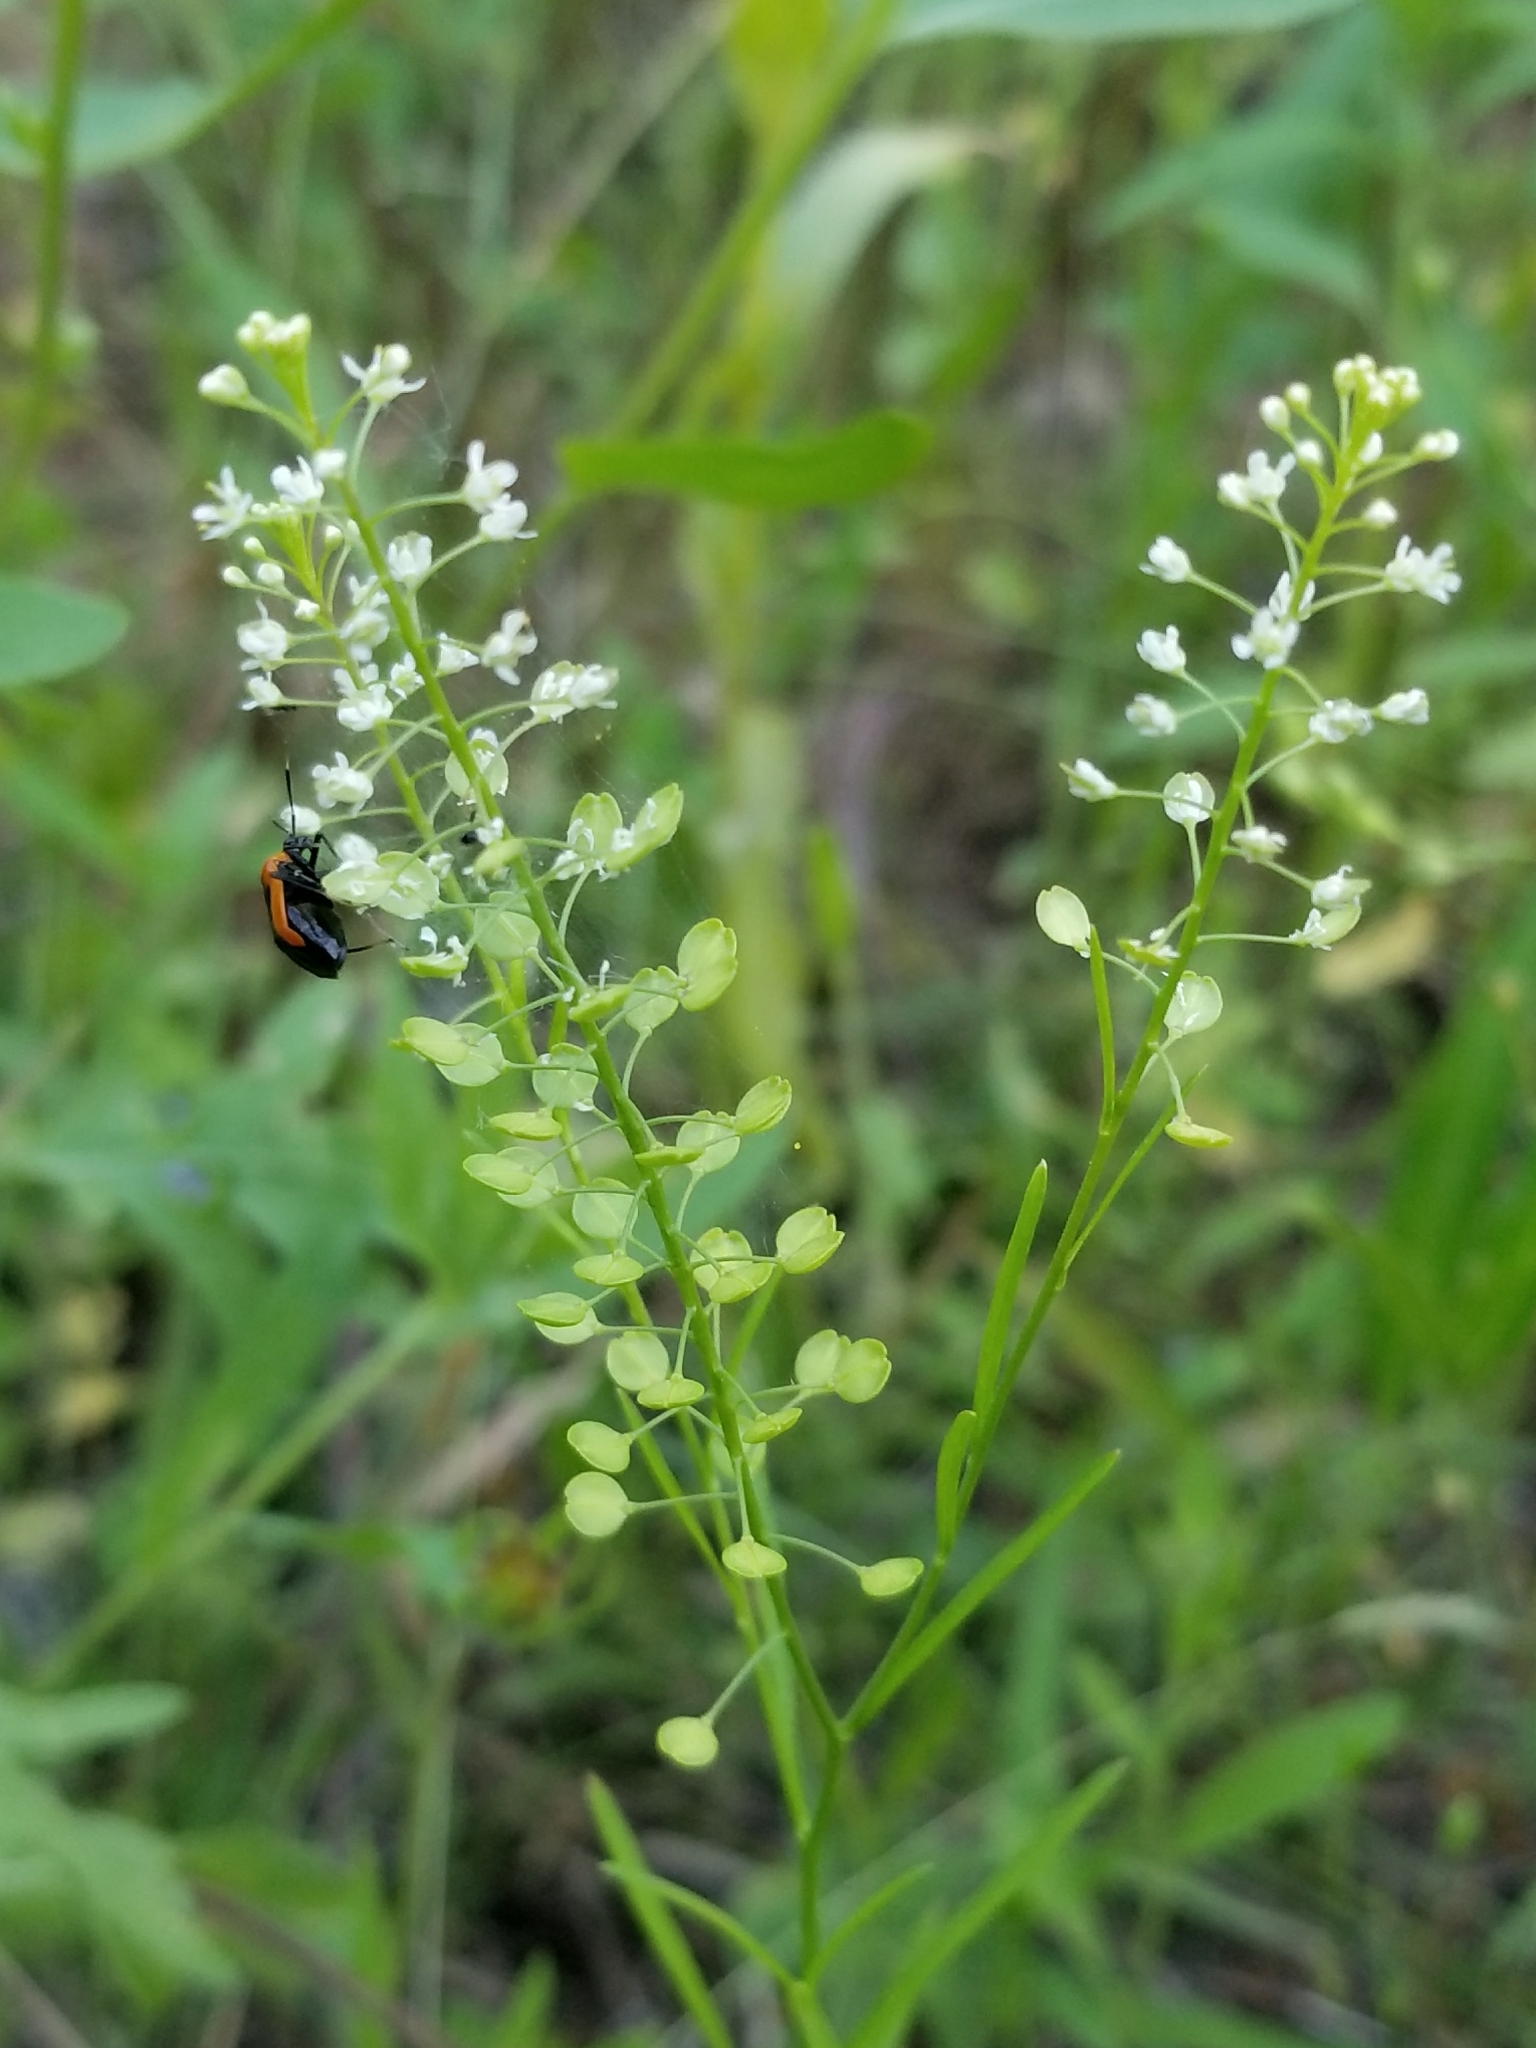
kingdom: Plantae
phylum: Tracheophyta
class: Magnoliopsida
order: Brassicales
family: Brassicaceae
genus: Lepidium
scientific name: Lepidium virginicum
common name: Least pepperwort
